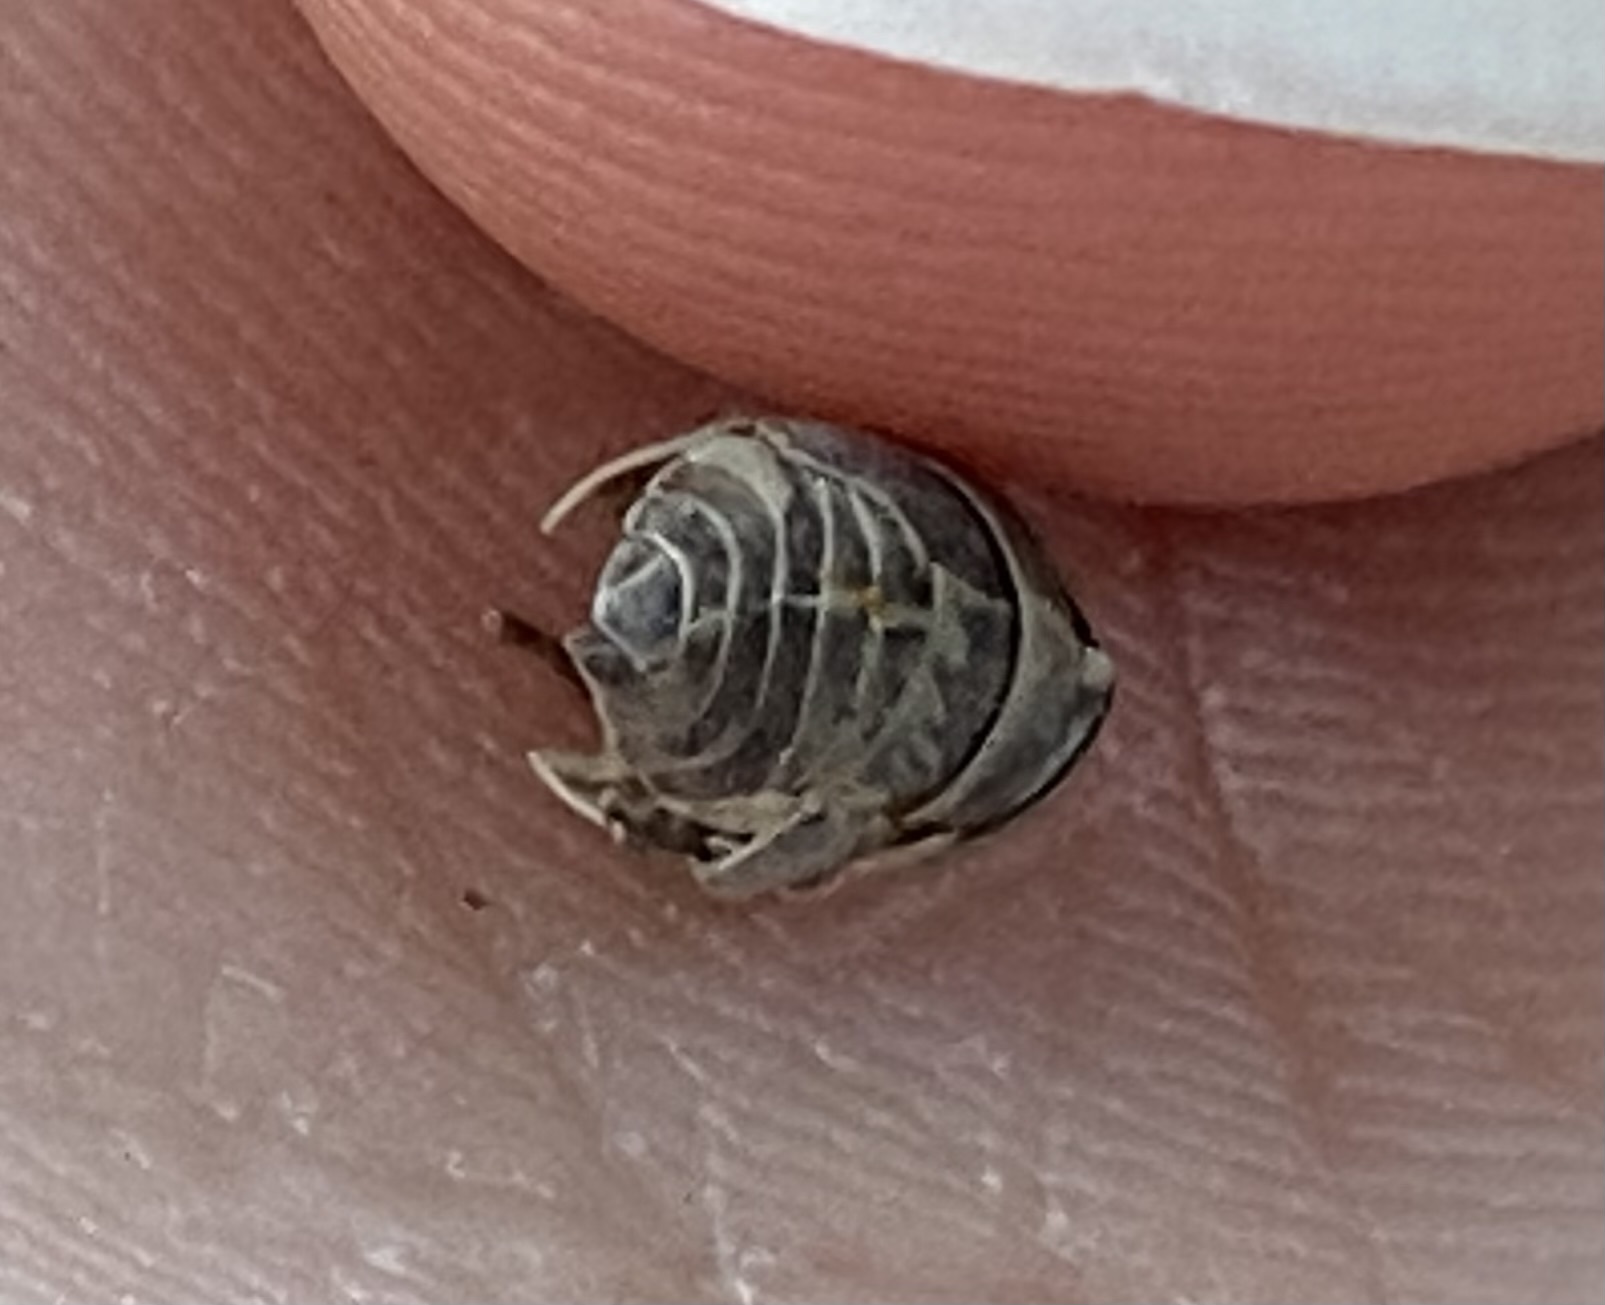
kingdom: Animalia
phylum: Arthropoda
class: Malacostraca
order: Isopoda
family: Armadillidiidae
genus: Armadillidium
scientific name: Armadillidium vulgare
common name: Common pill woodlouse
